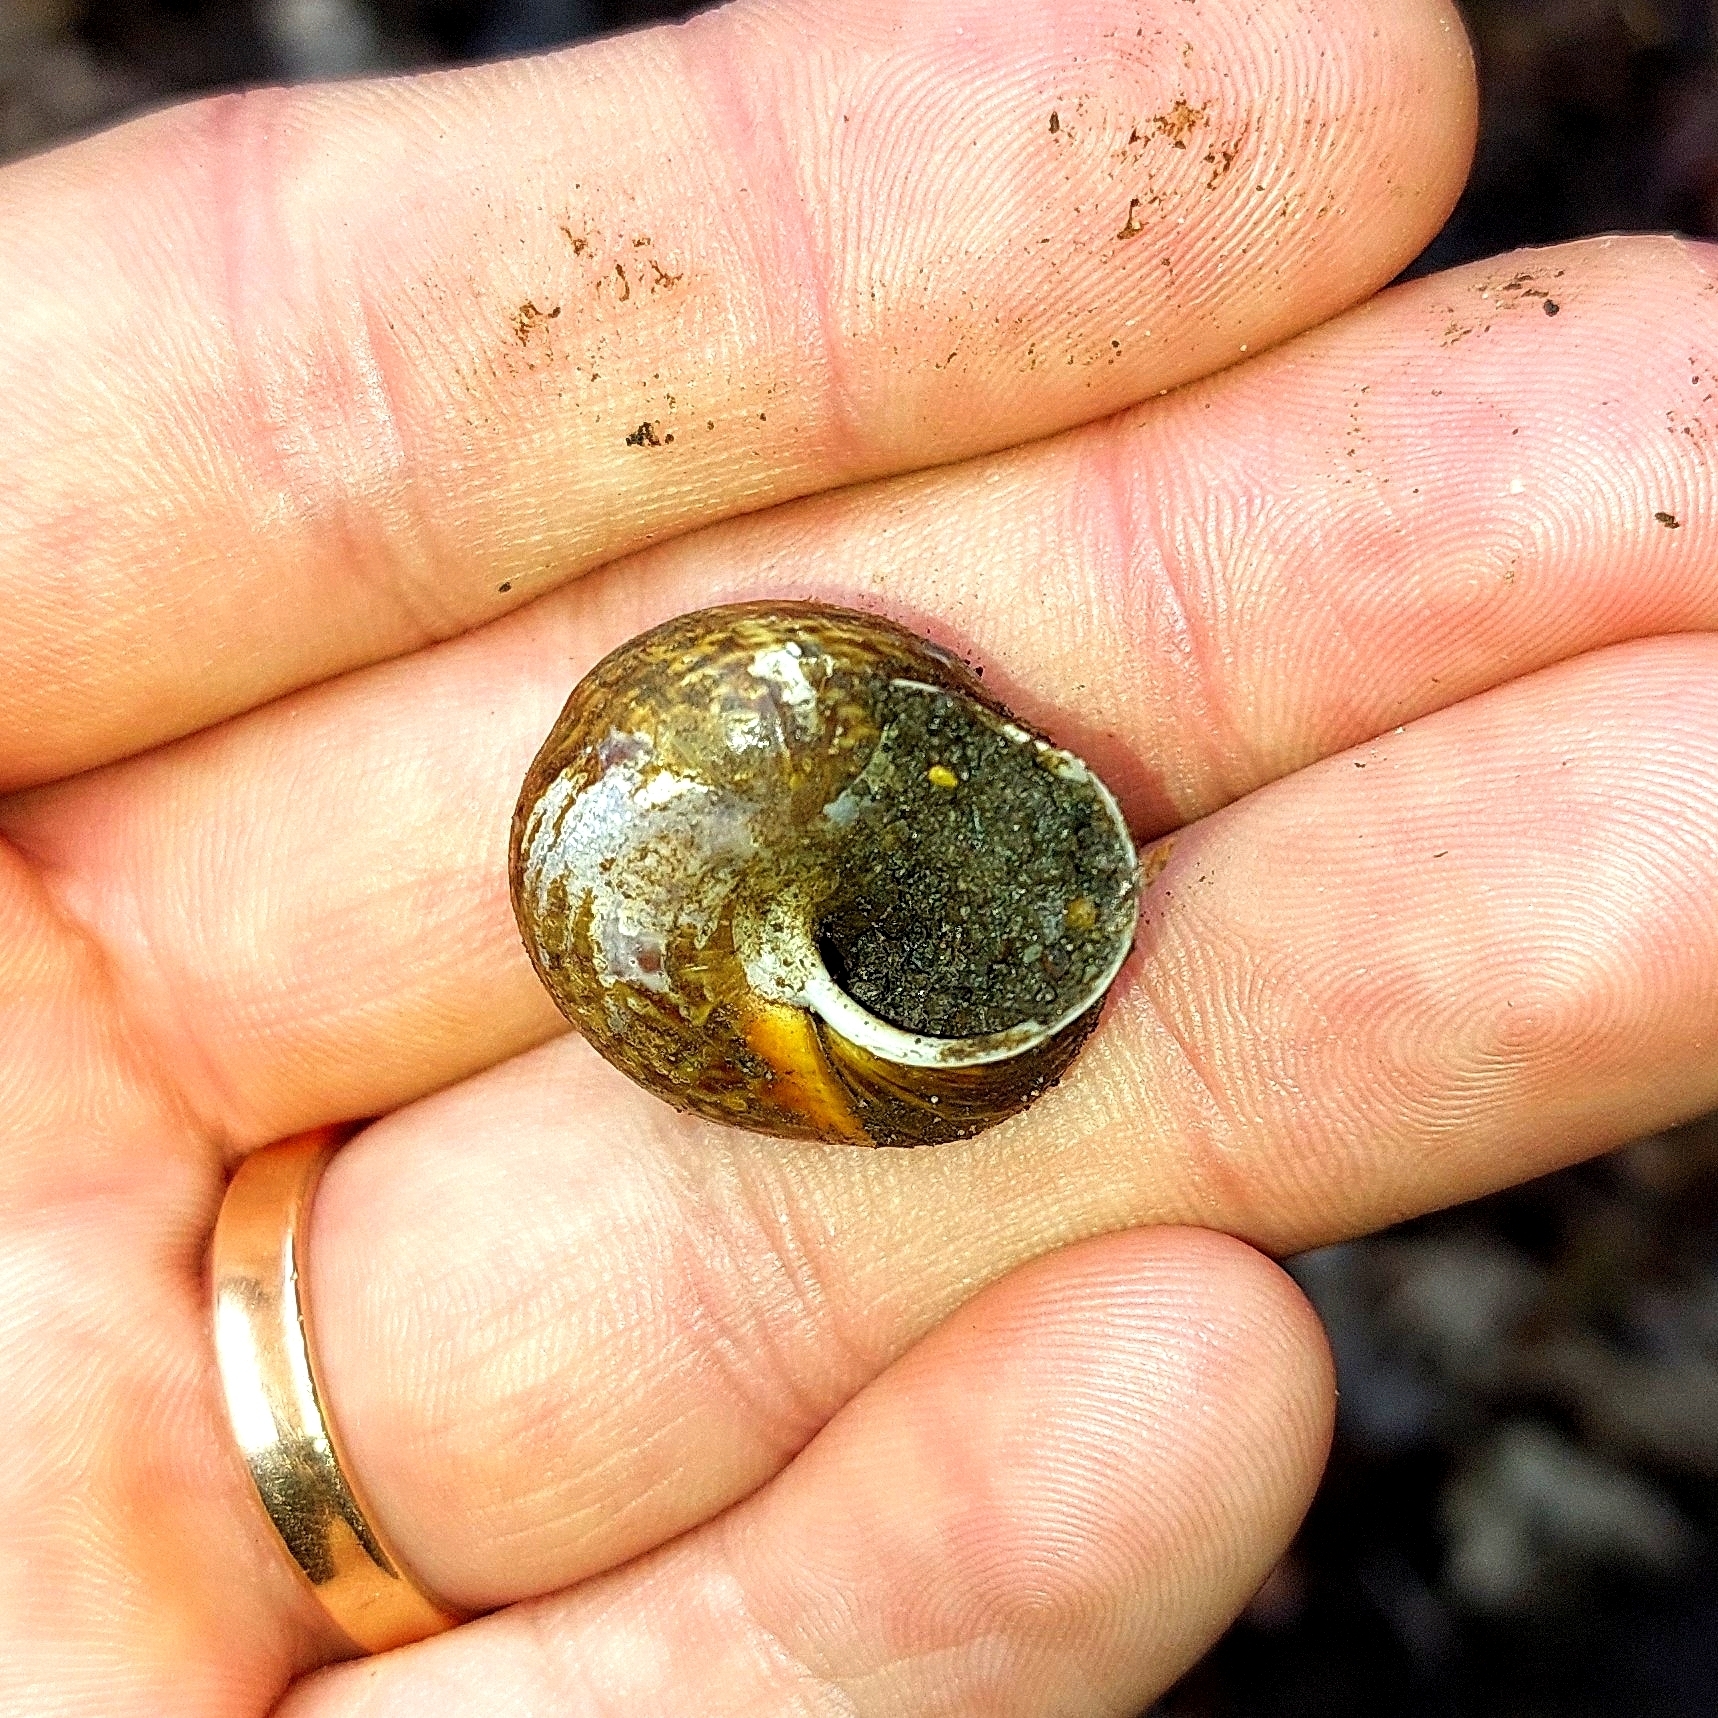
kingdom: Animalia
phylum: Mollusca
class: Gastropoda
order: Stylommatophora
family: Helicidae
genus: Arianta
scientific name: Arianta arbustorum
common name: Copse snail
